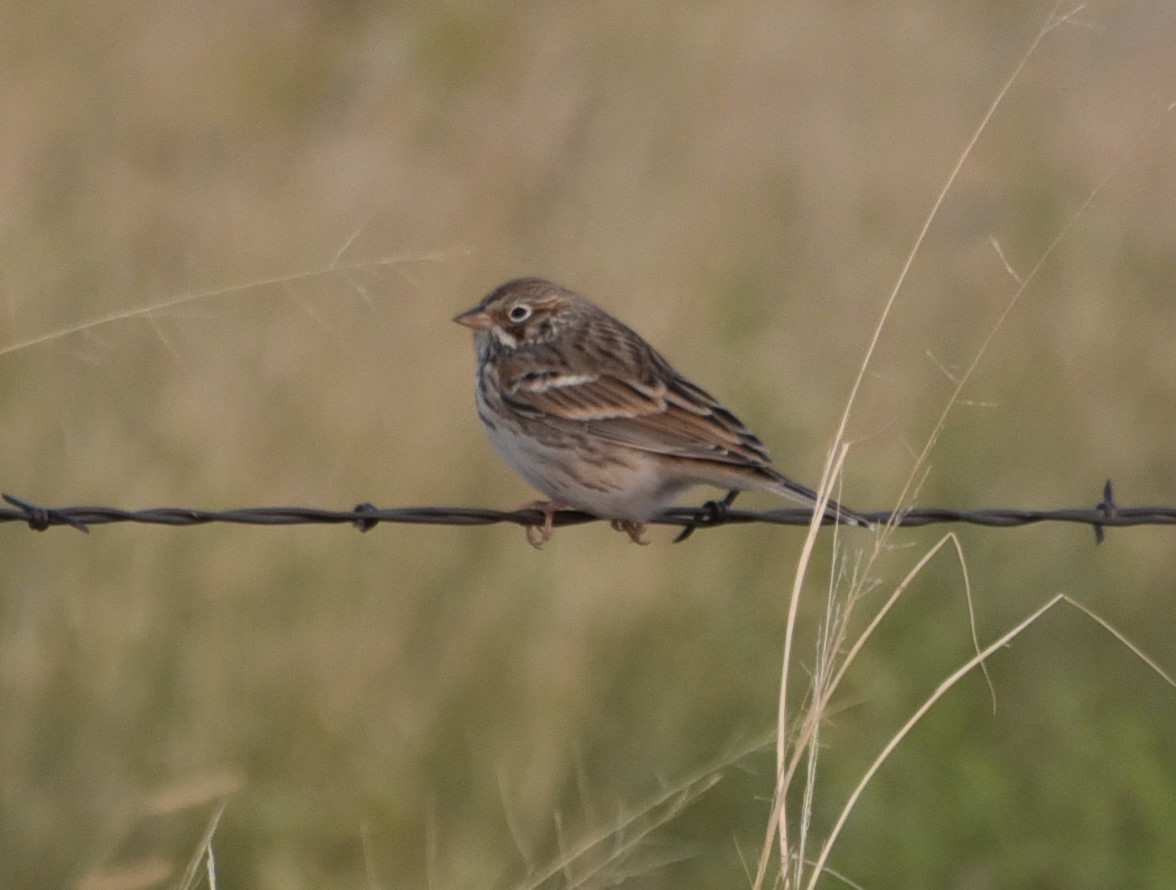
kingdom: Animalia
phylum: Chordata
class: Aves
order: Passeriformes
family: Passerellidae
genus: Pooecetes
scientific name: Pooecetes gramineus
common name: Vesper sparrow
